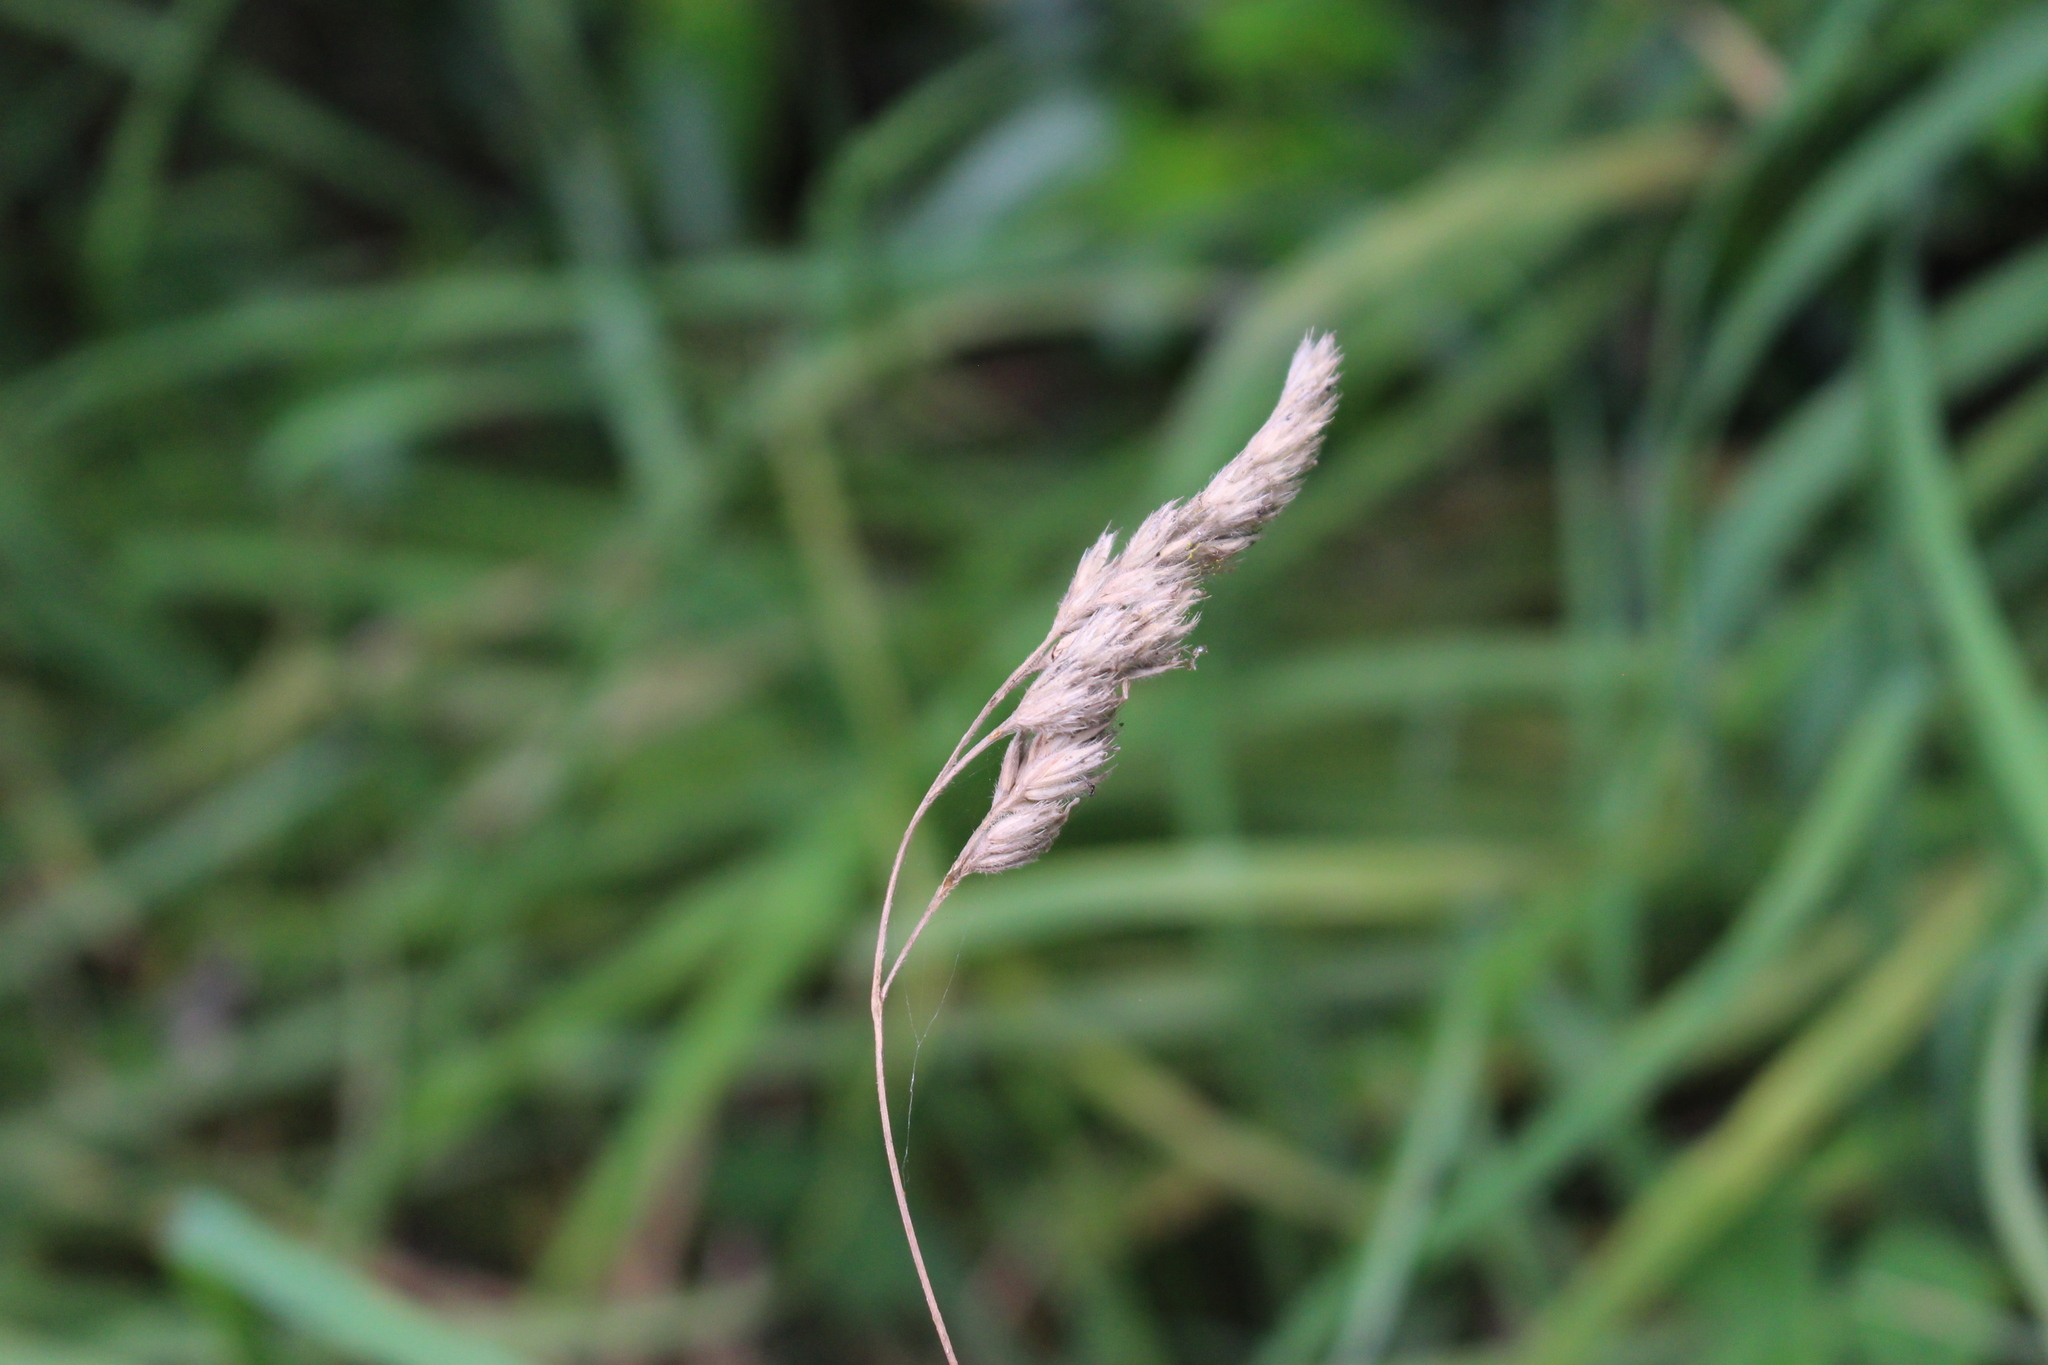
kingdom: Plantae
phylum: Tracheophyta
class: Liliopsida
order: Poales
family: Poaceae
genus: Dactylis
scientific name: Dactylis glomerata
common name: Orchardgrass
